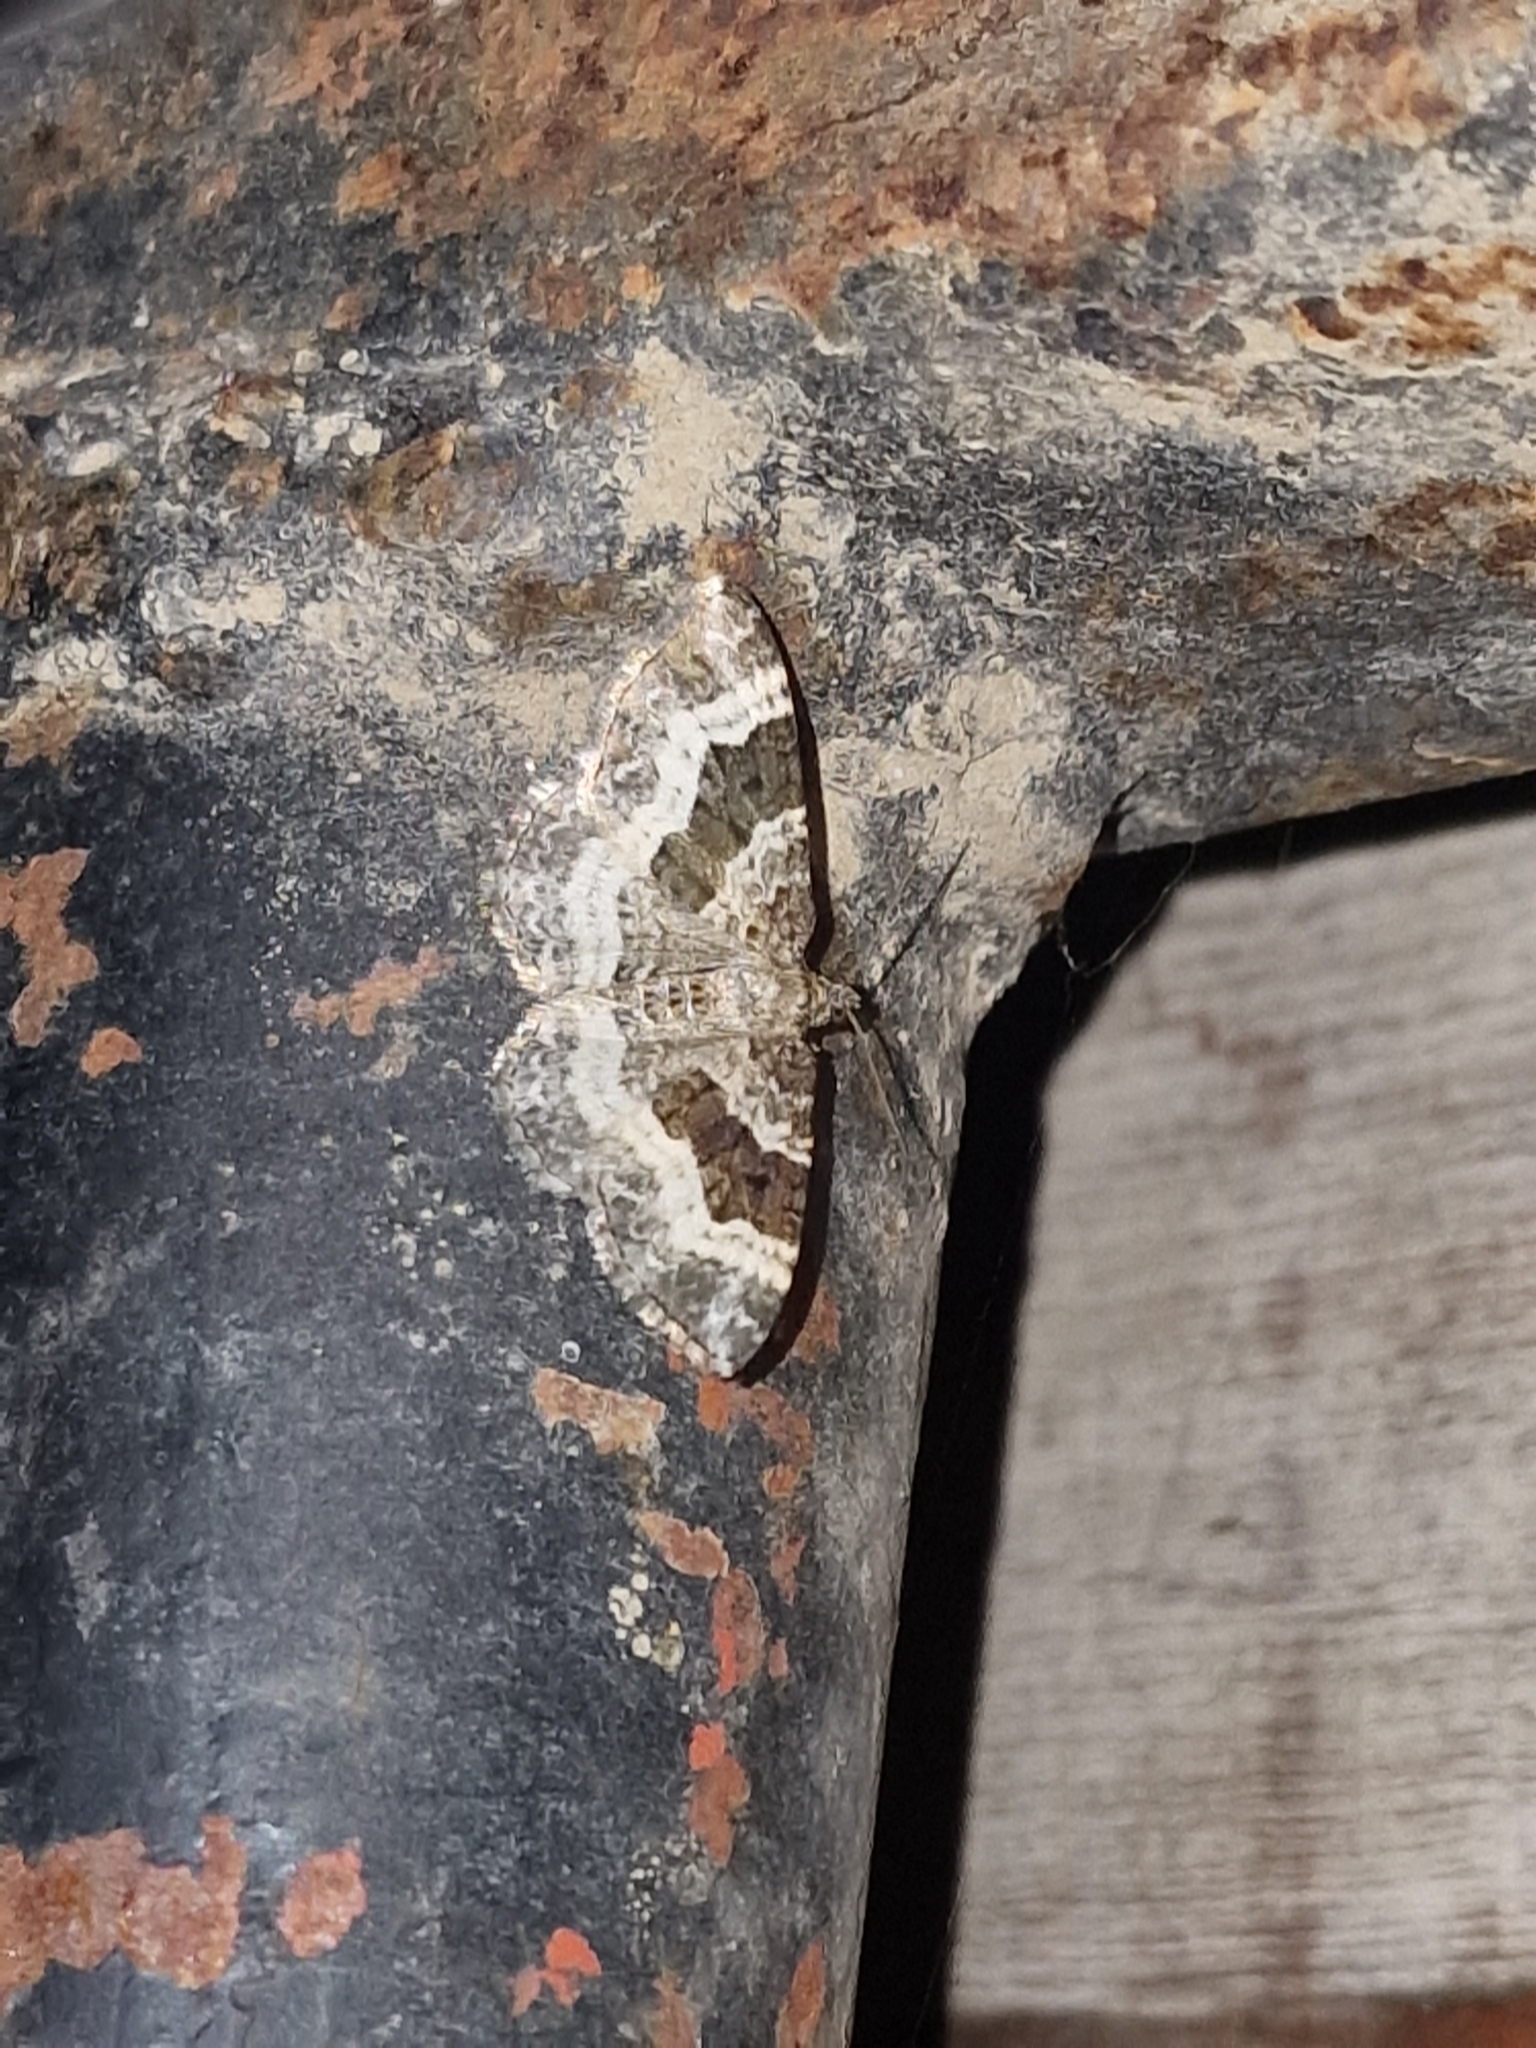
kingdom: Animalia
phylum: Arthropoda
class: Insecta
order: Lepidoptera
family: Geometridae
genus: Epirrhoe
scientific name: Epirrhoe alternata
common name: Common carpet
